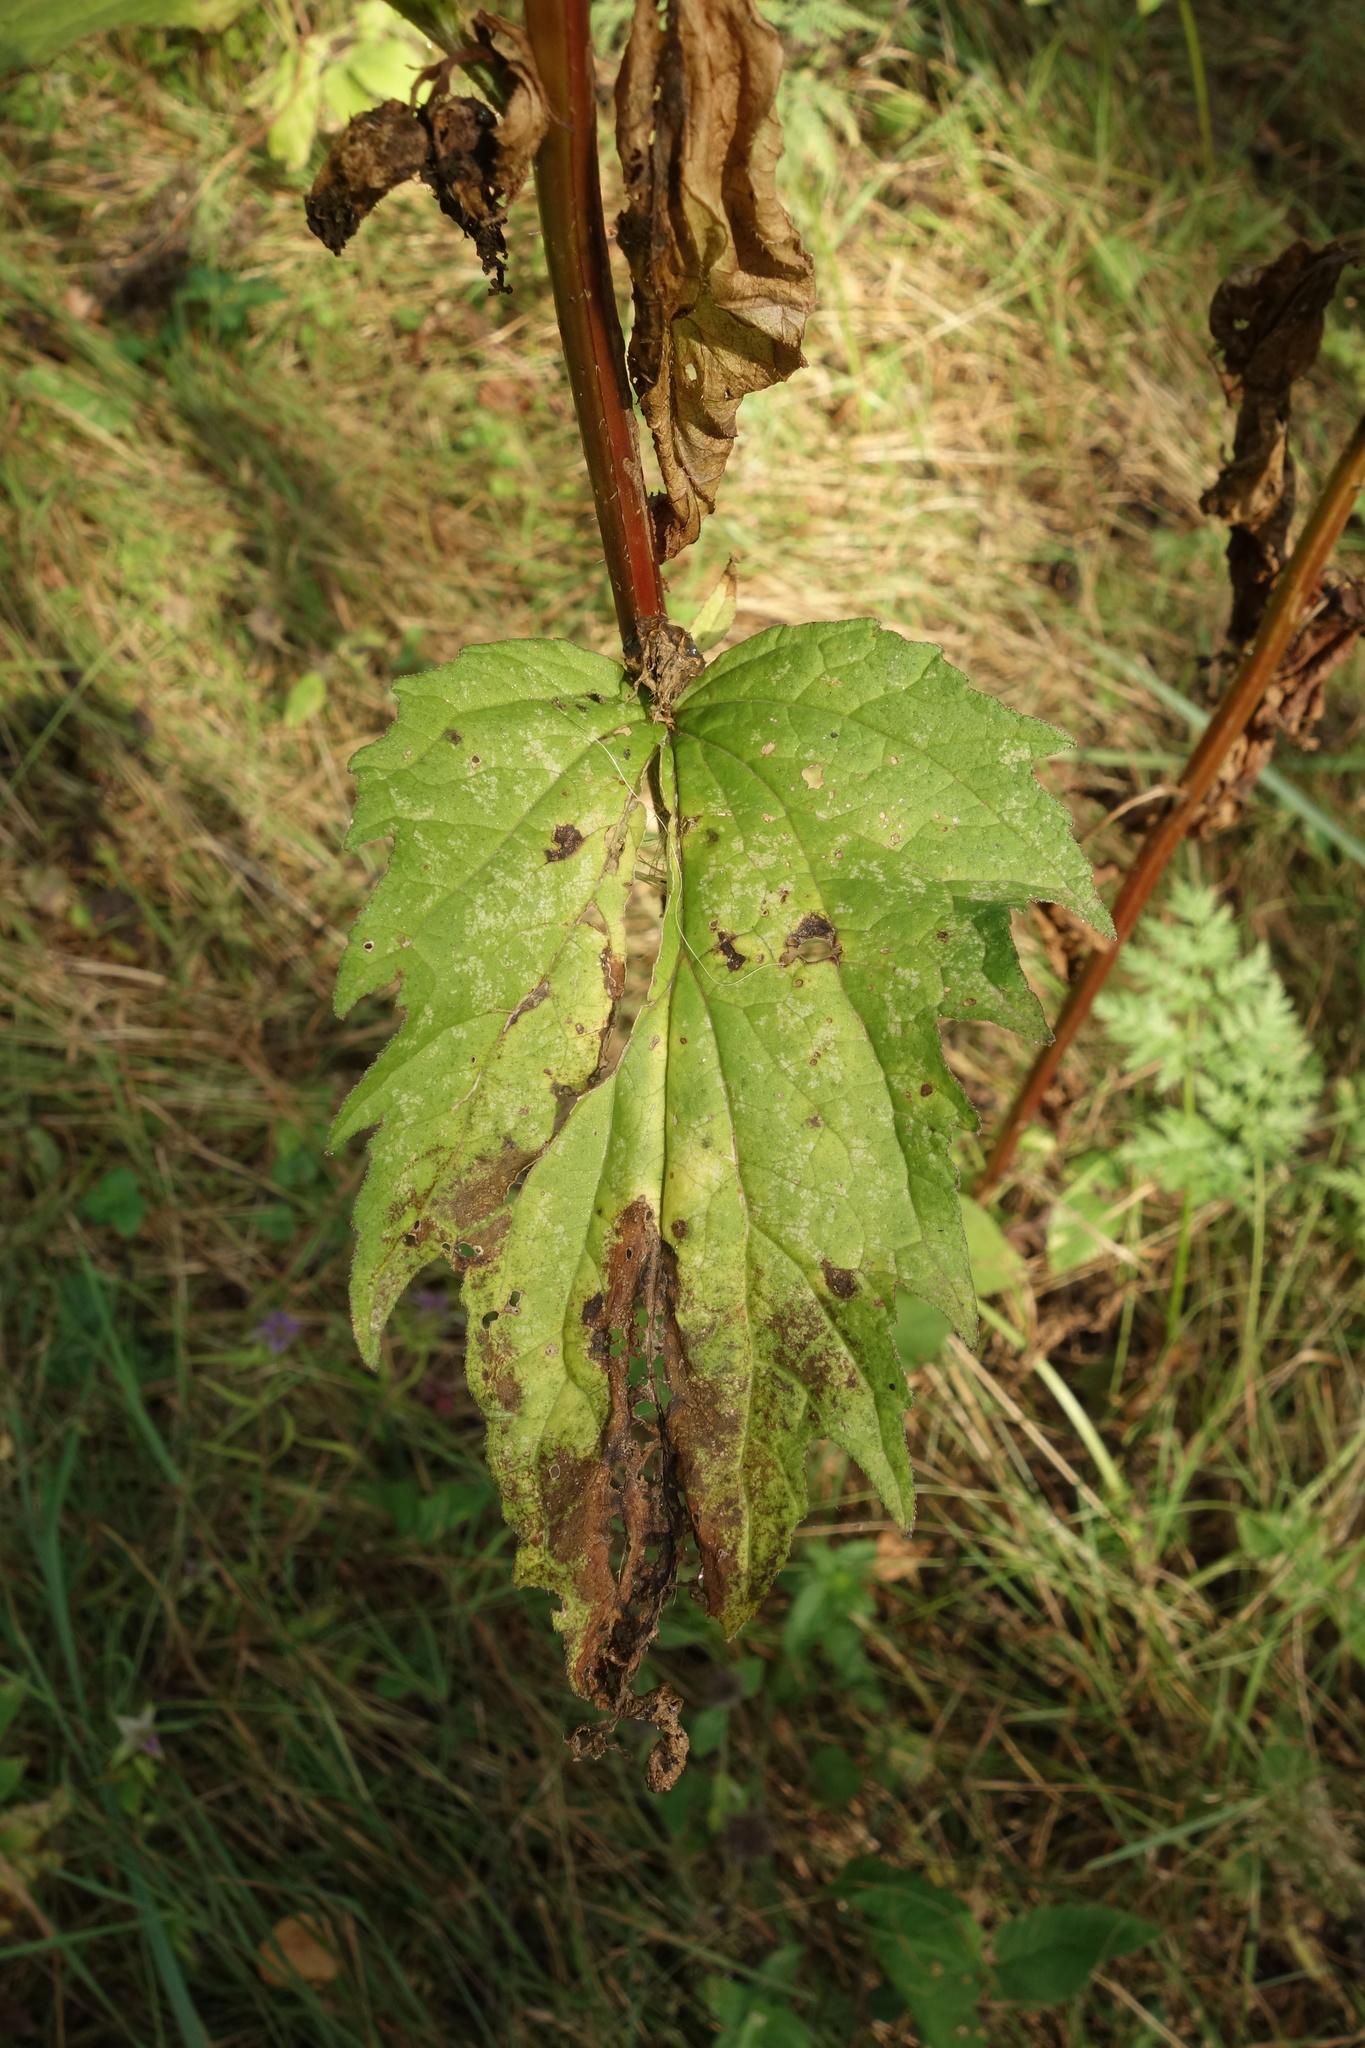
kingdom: Plantae
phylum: Tracheophyta
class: Magnoliopsida
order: Asterales
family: Campanulaceae
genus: Campanula
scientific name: Campanula trachelium
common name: Nettle-leaved bellflower
